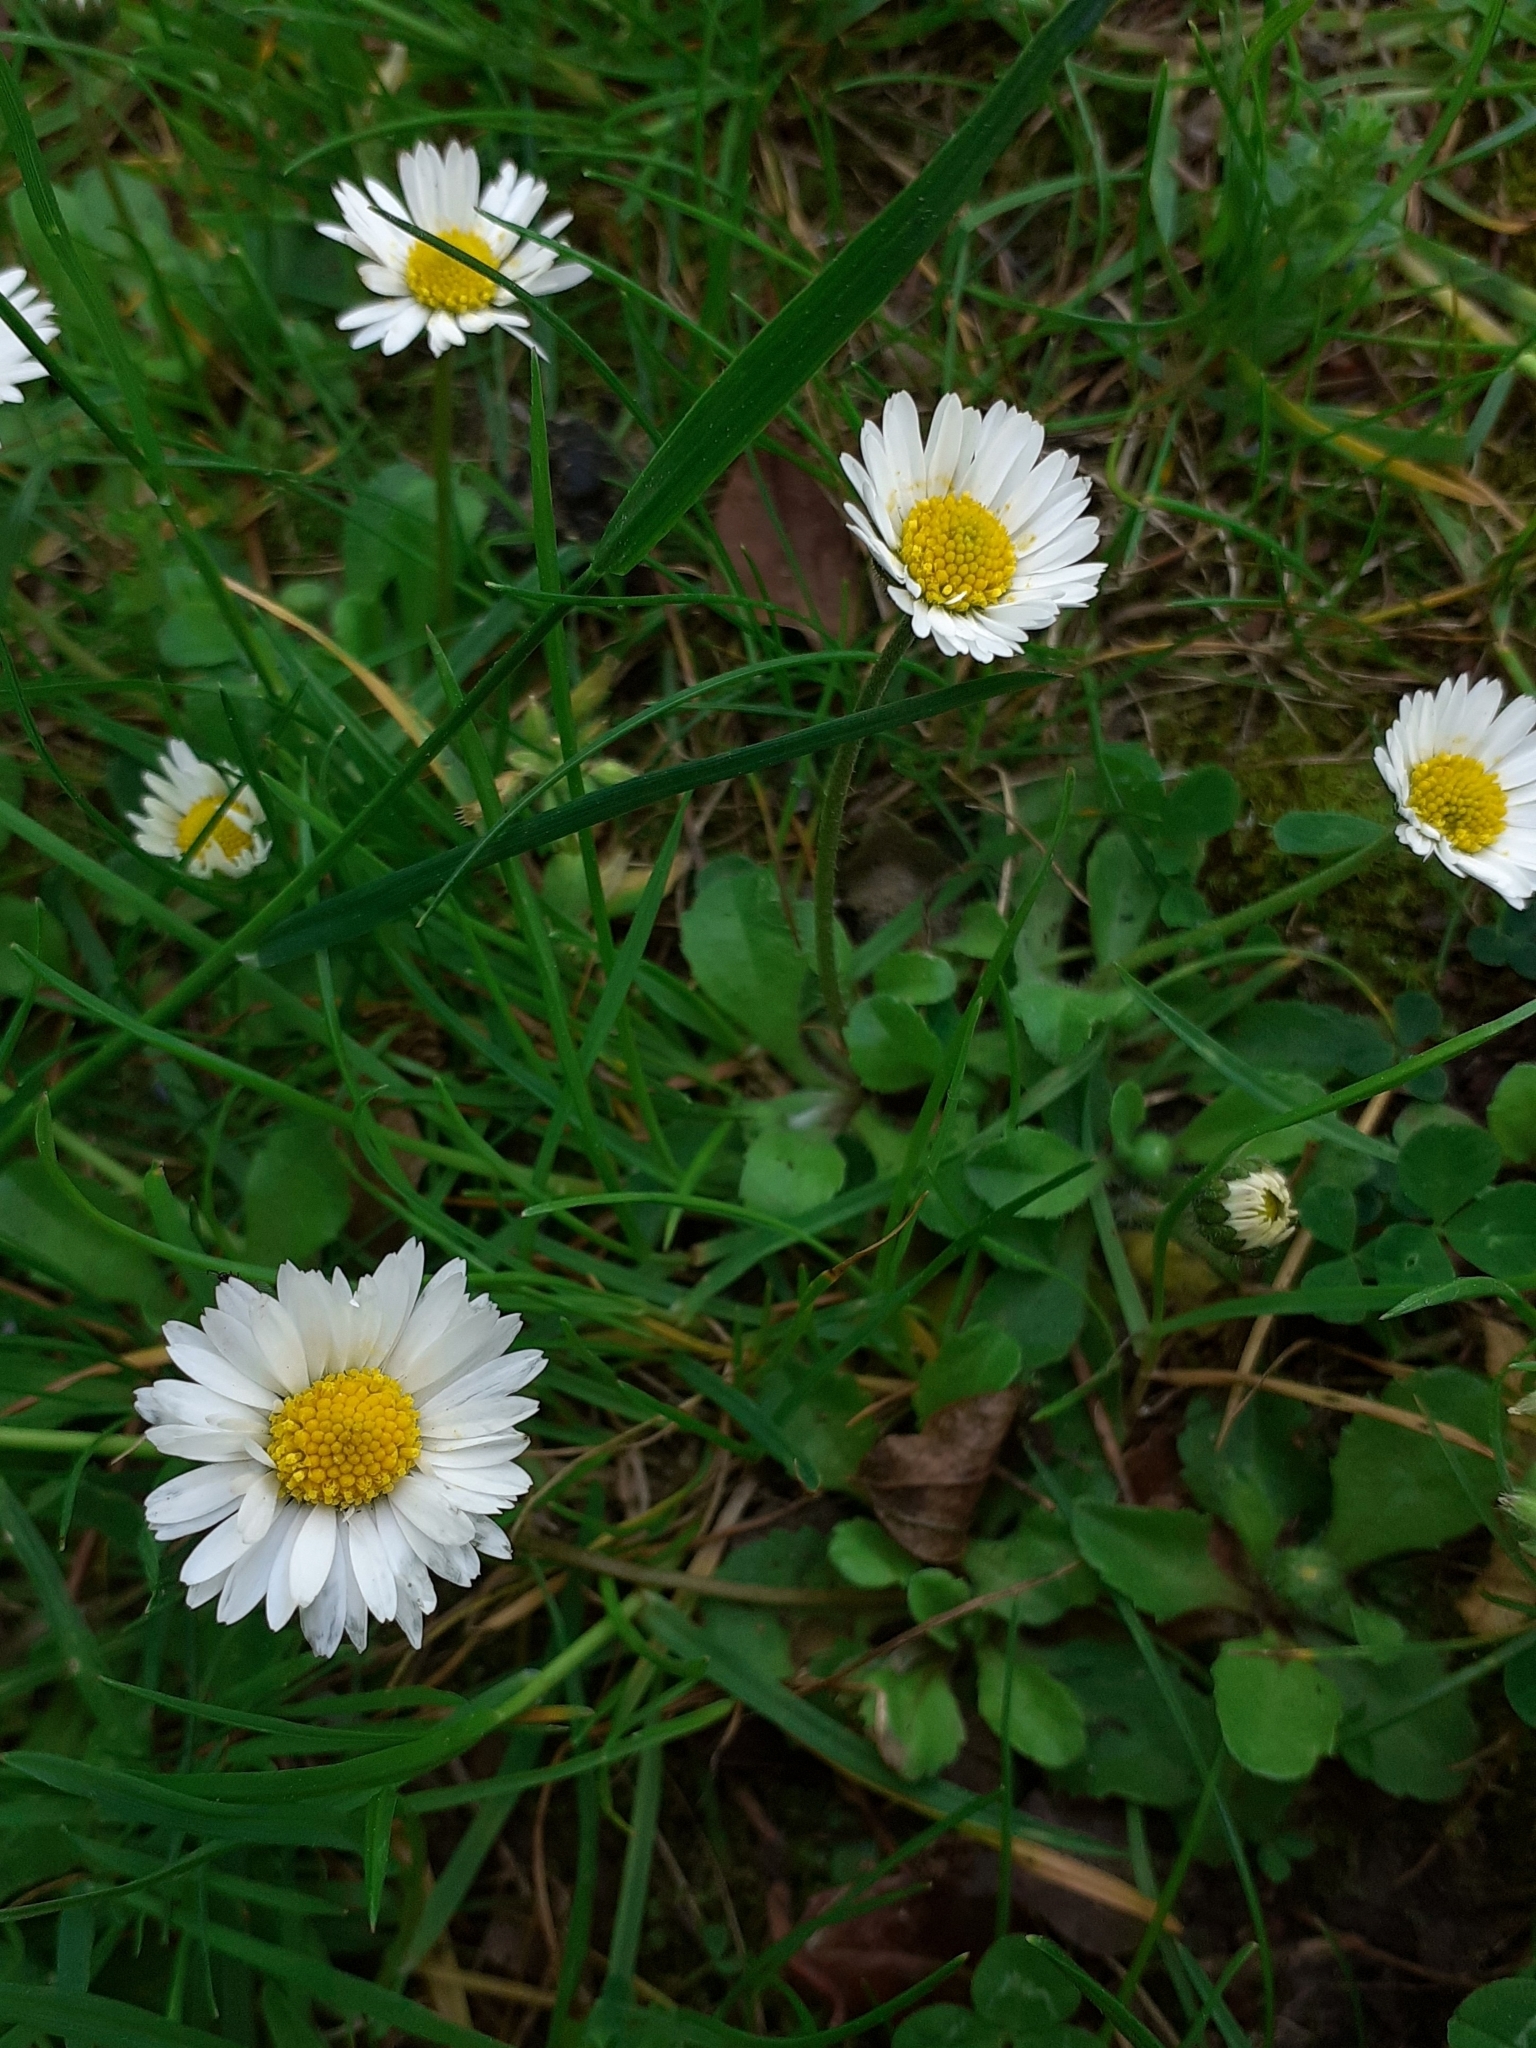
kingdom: Plantae
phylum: Tracheophyta
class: Magnoliopsida
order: Asterales
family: Asteraceae
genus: Bellis
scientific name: Bellis perennis
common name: Lawndaisy
